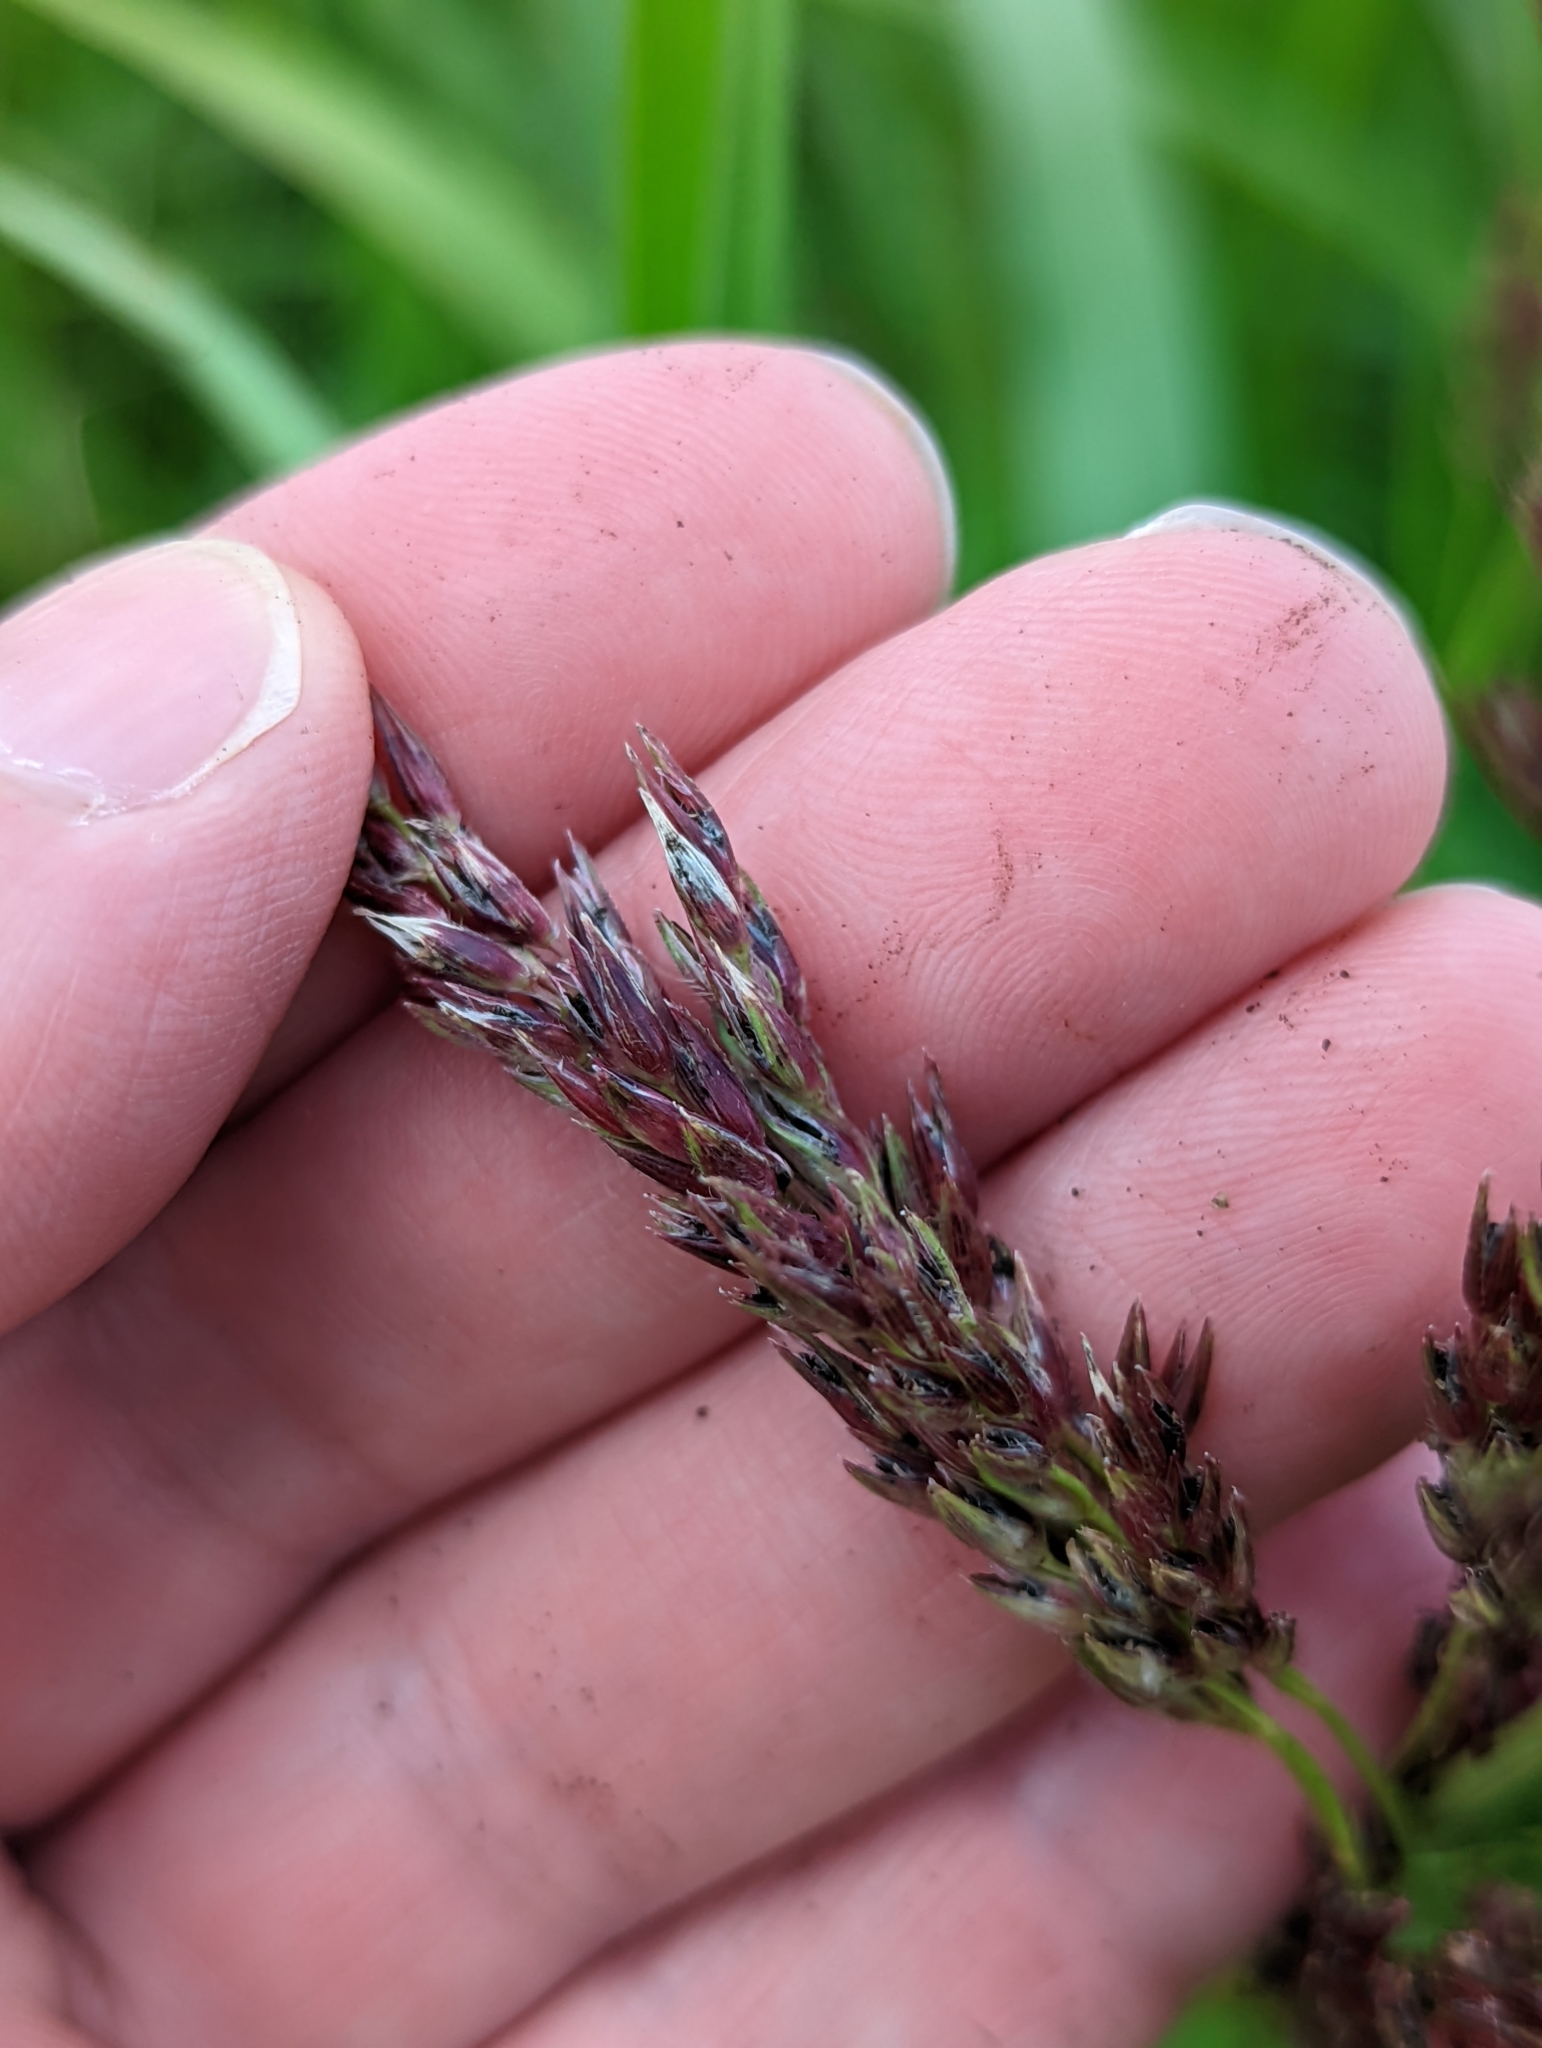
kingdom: Plantae
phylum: Tracheophyta
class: Liliopsida
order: Poales
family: Poaceae
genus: Sorghum
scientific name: Sorghum halepense
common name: Johnson-grass
